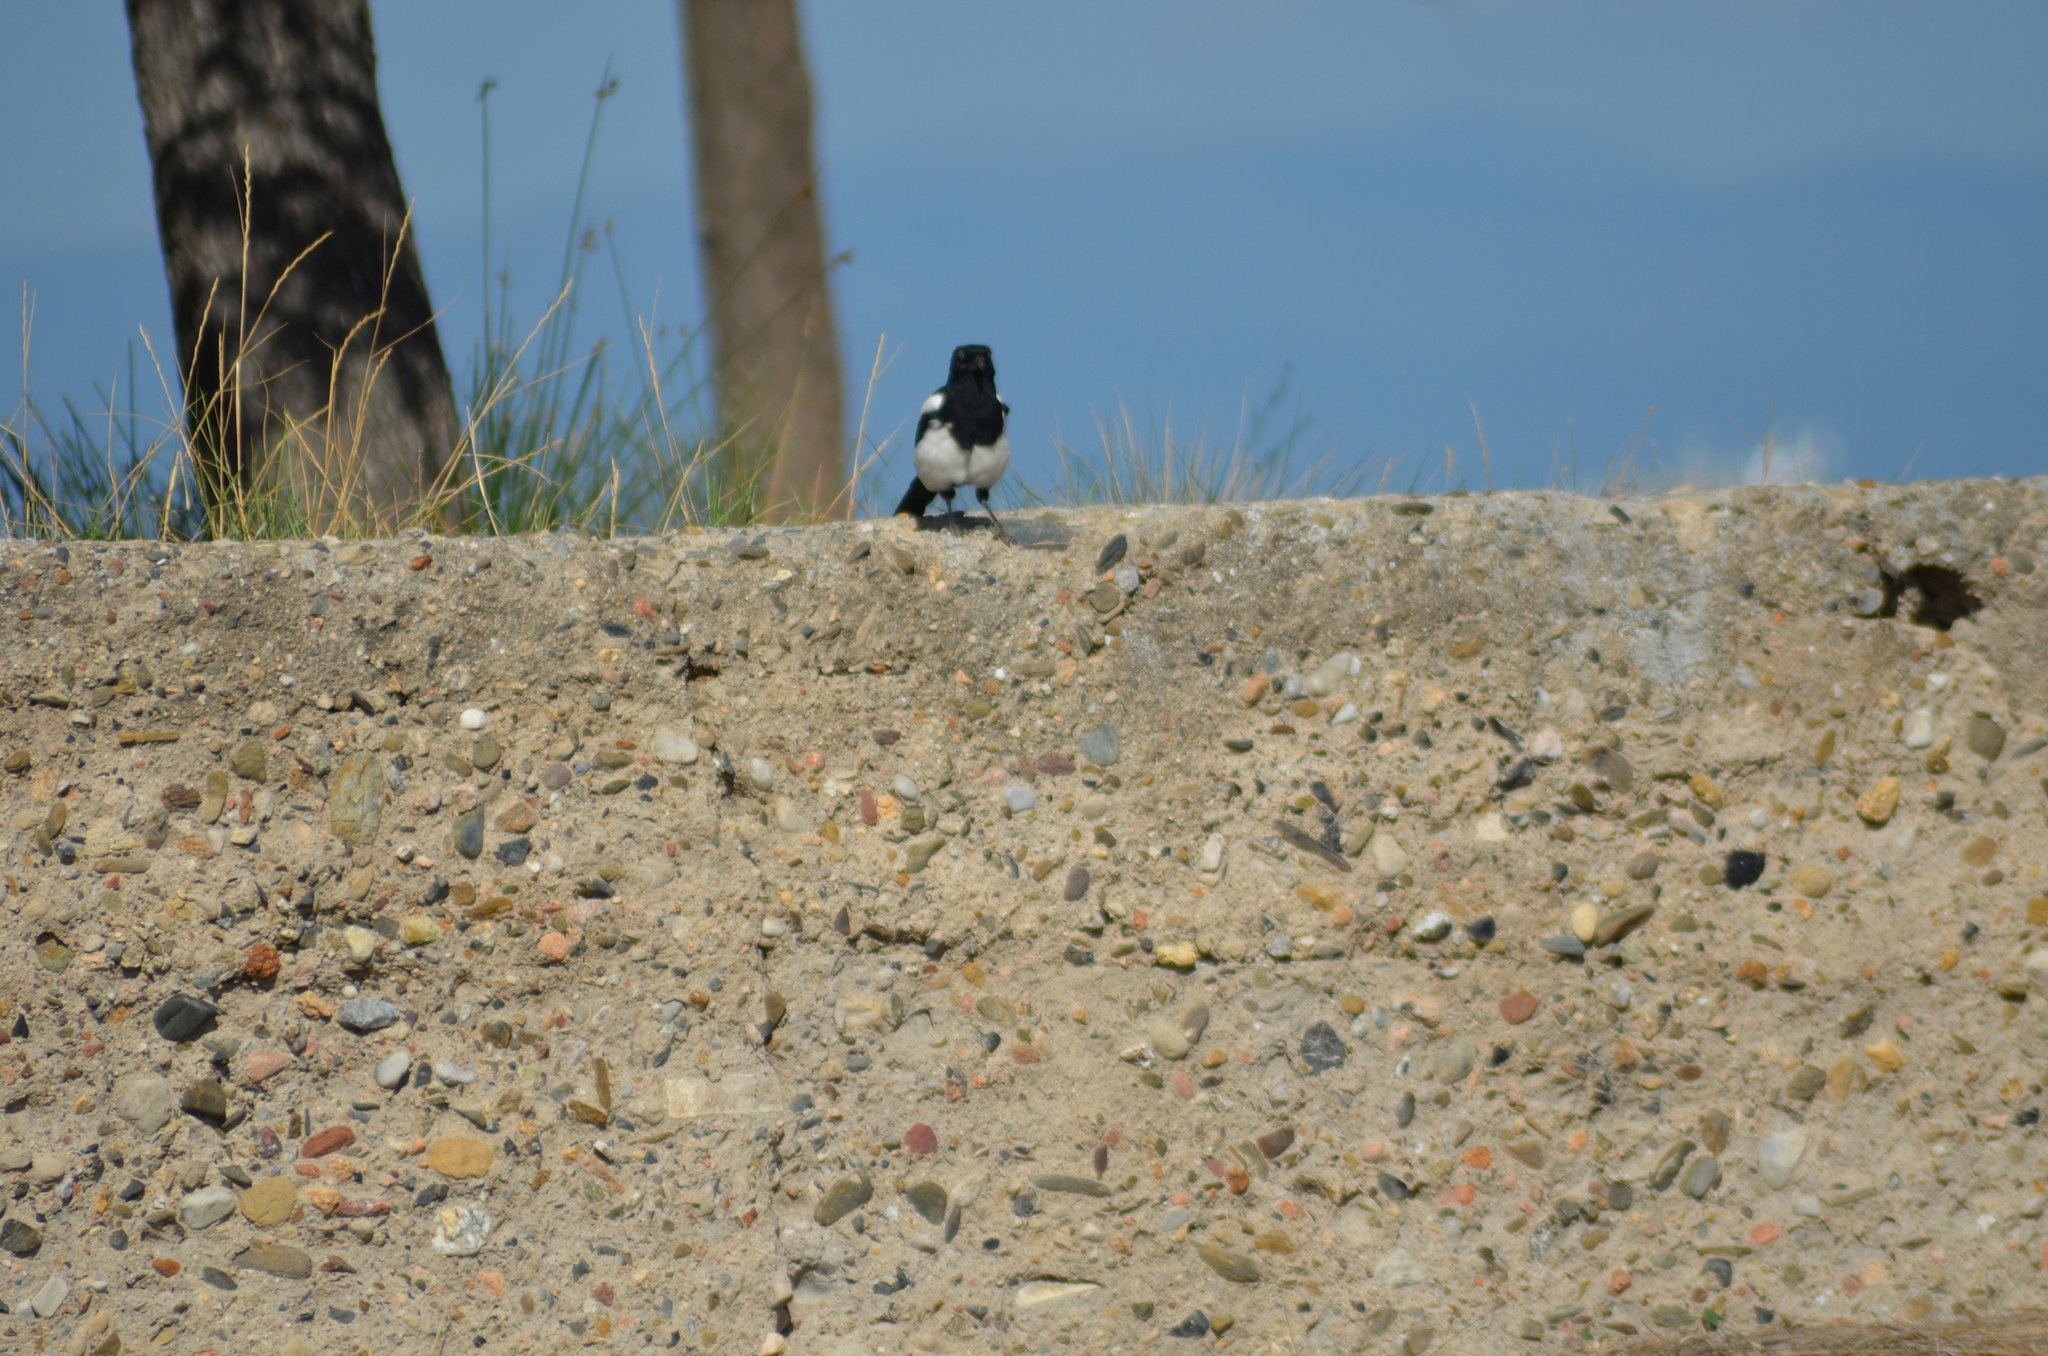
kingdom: Animalia
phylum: Chordata
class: Aves
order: Passeriformes
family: Corvidae
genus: Pica
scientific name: Pica pica
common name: Eurasian magpie
